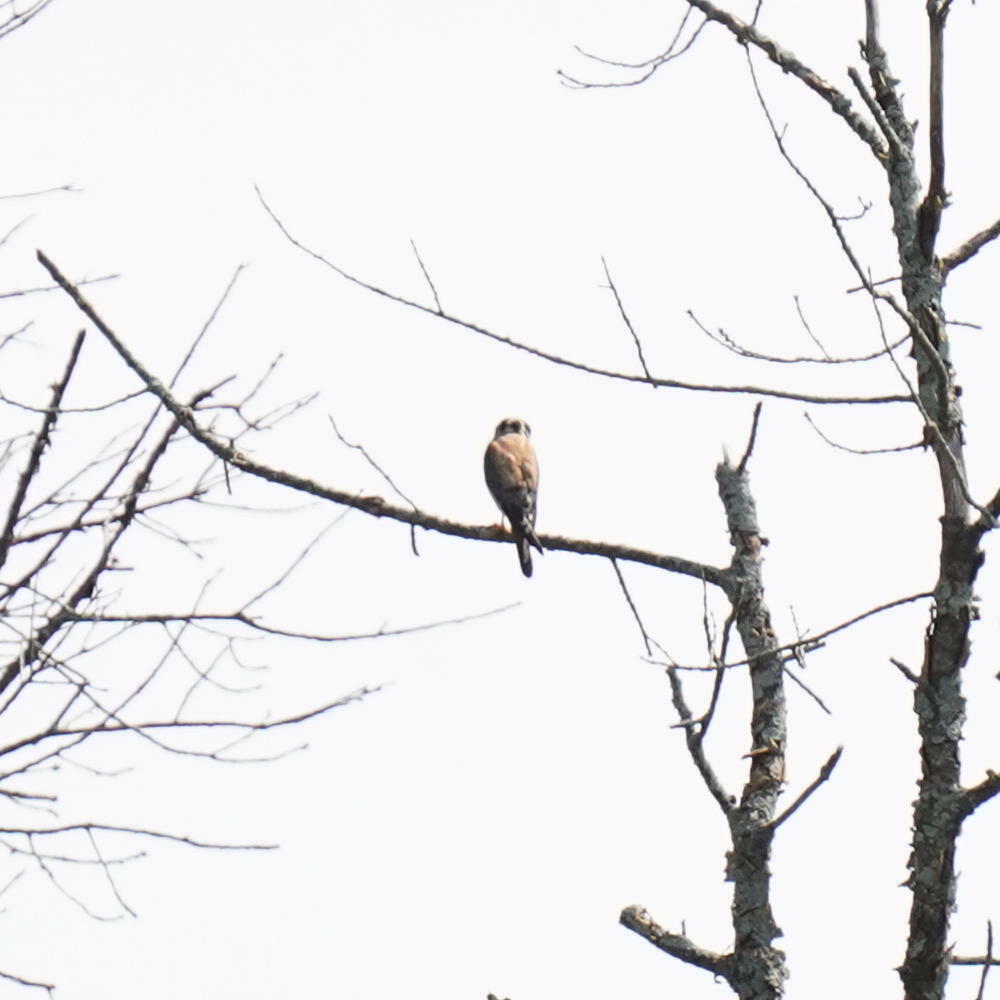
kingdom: Animalia
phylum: Chordata
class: Aves
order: Falconiformes
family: Falconidae
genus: Falco
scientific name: Falco sparverius
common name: American kestrel
